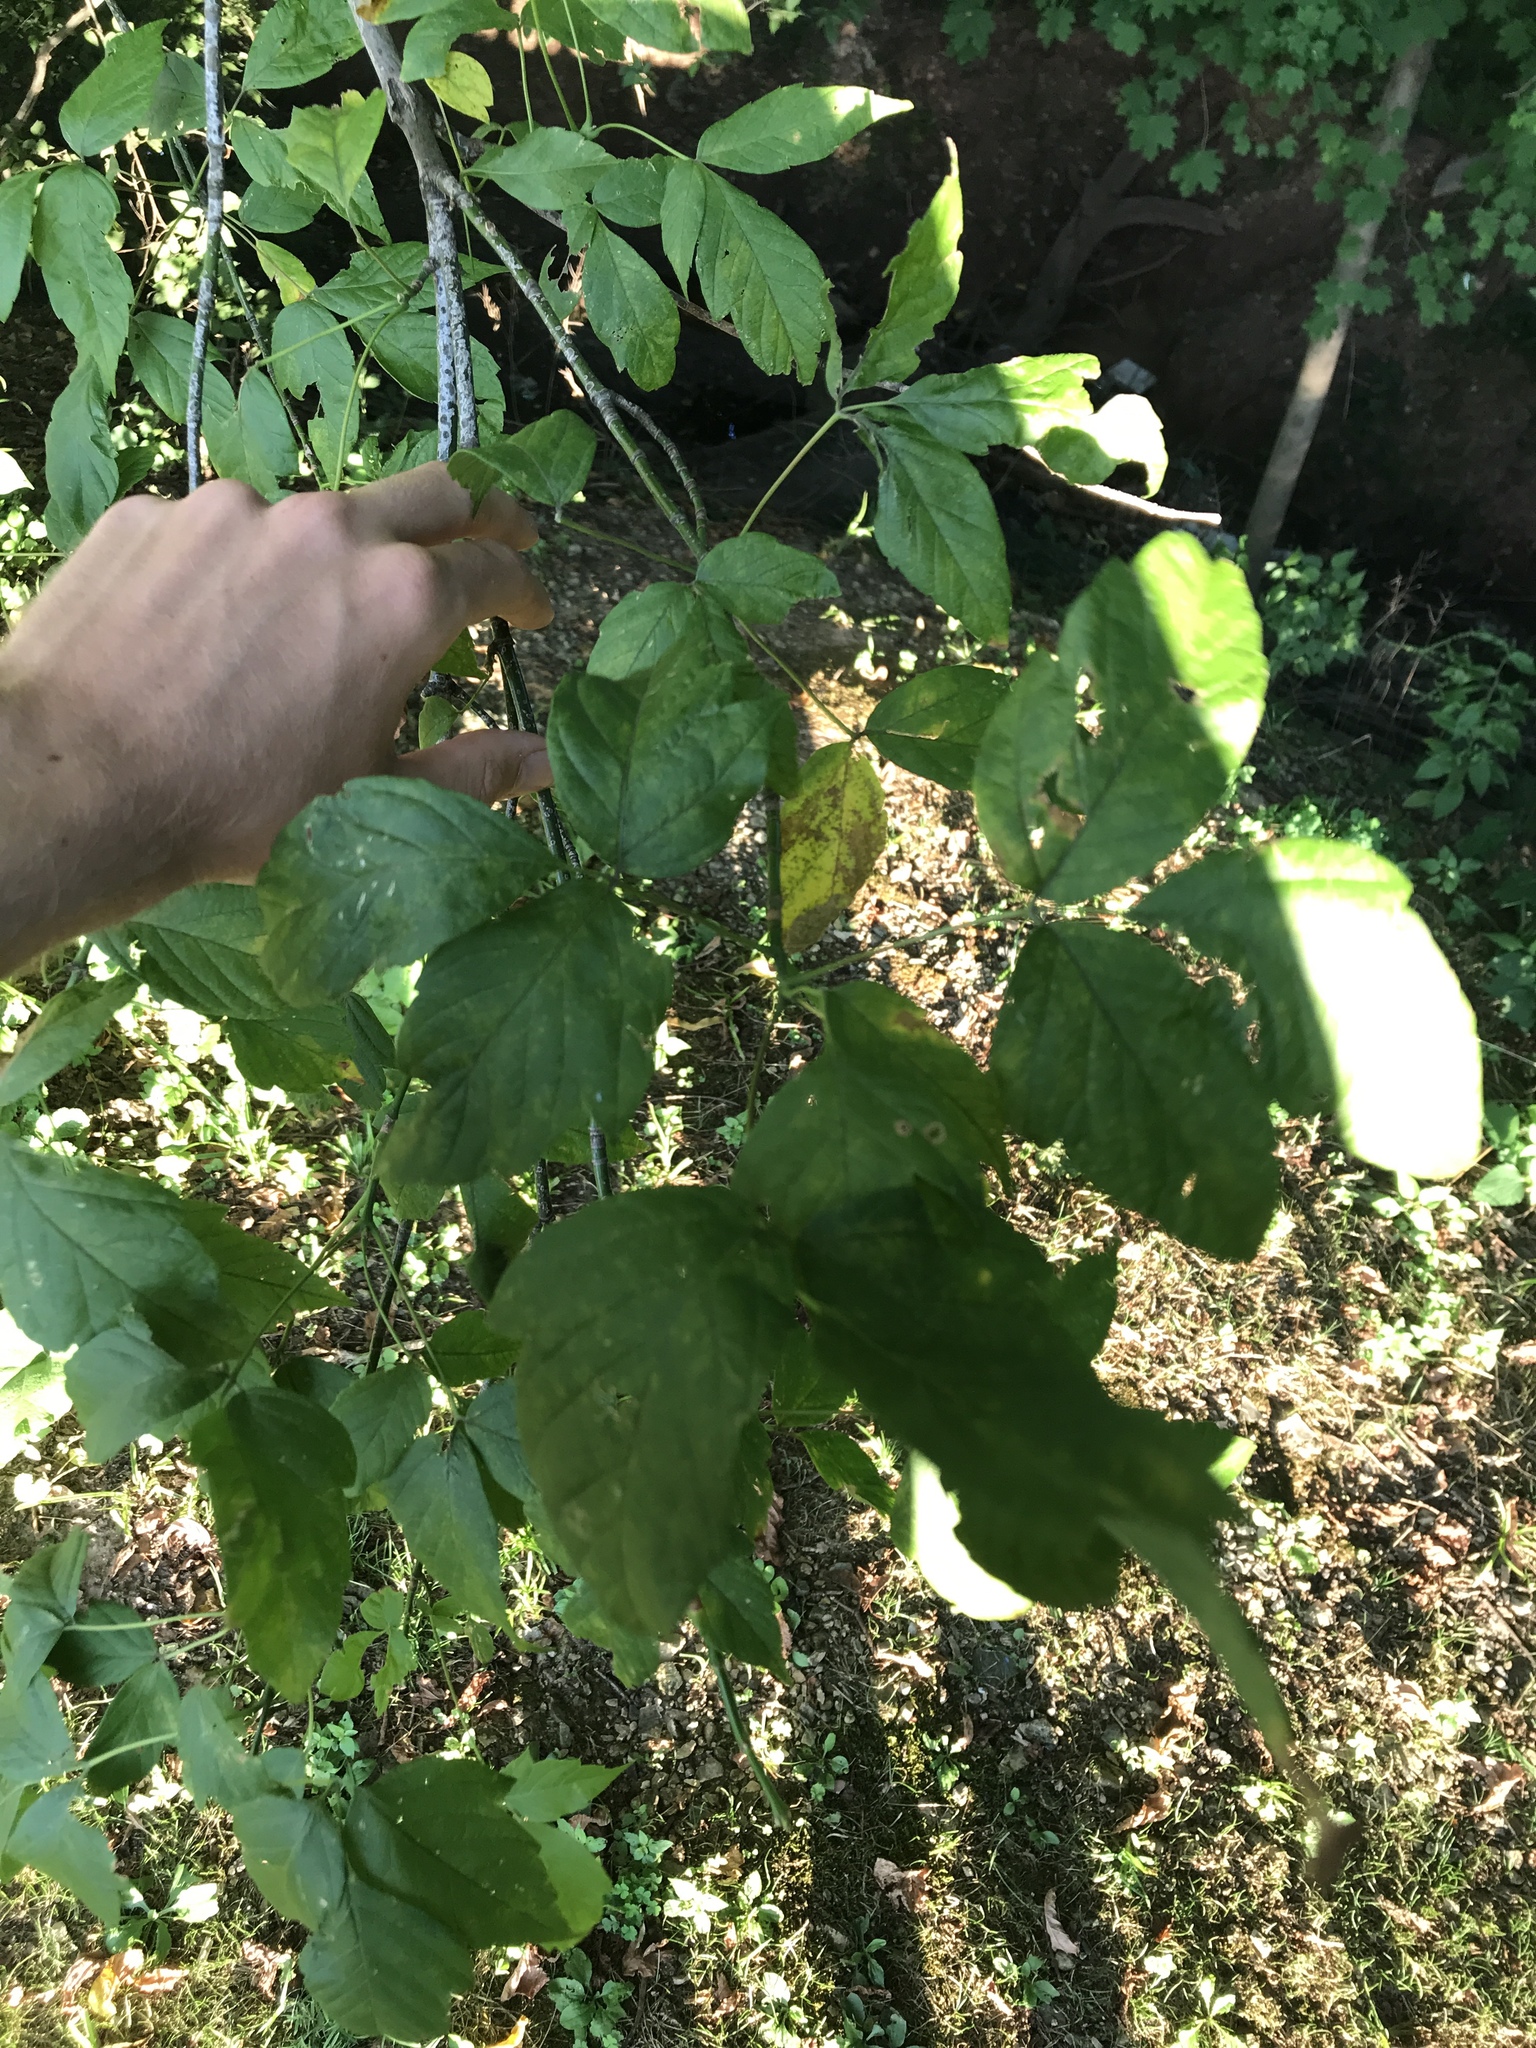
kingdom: Plantae
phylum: Tracheophyta
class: Magnoliopsida
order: Sapindales
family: Sapindaceae
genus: Acer
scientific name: Acer negundo
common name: Ashleaf maple
